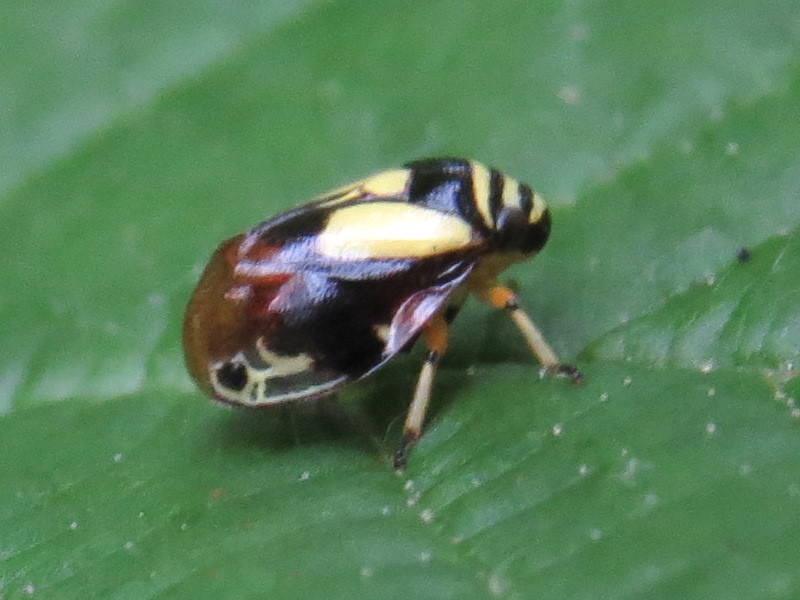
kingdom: Animalia
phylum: Arthropoda
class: Insecta
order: Hemiptera
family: Clastopteridae
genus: Clastoptera
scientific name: Clastoptera proteus
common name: Dogwood spittlebug
